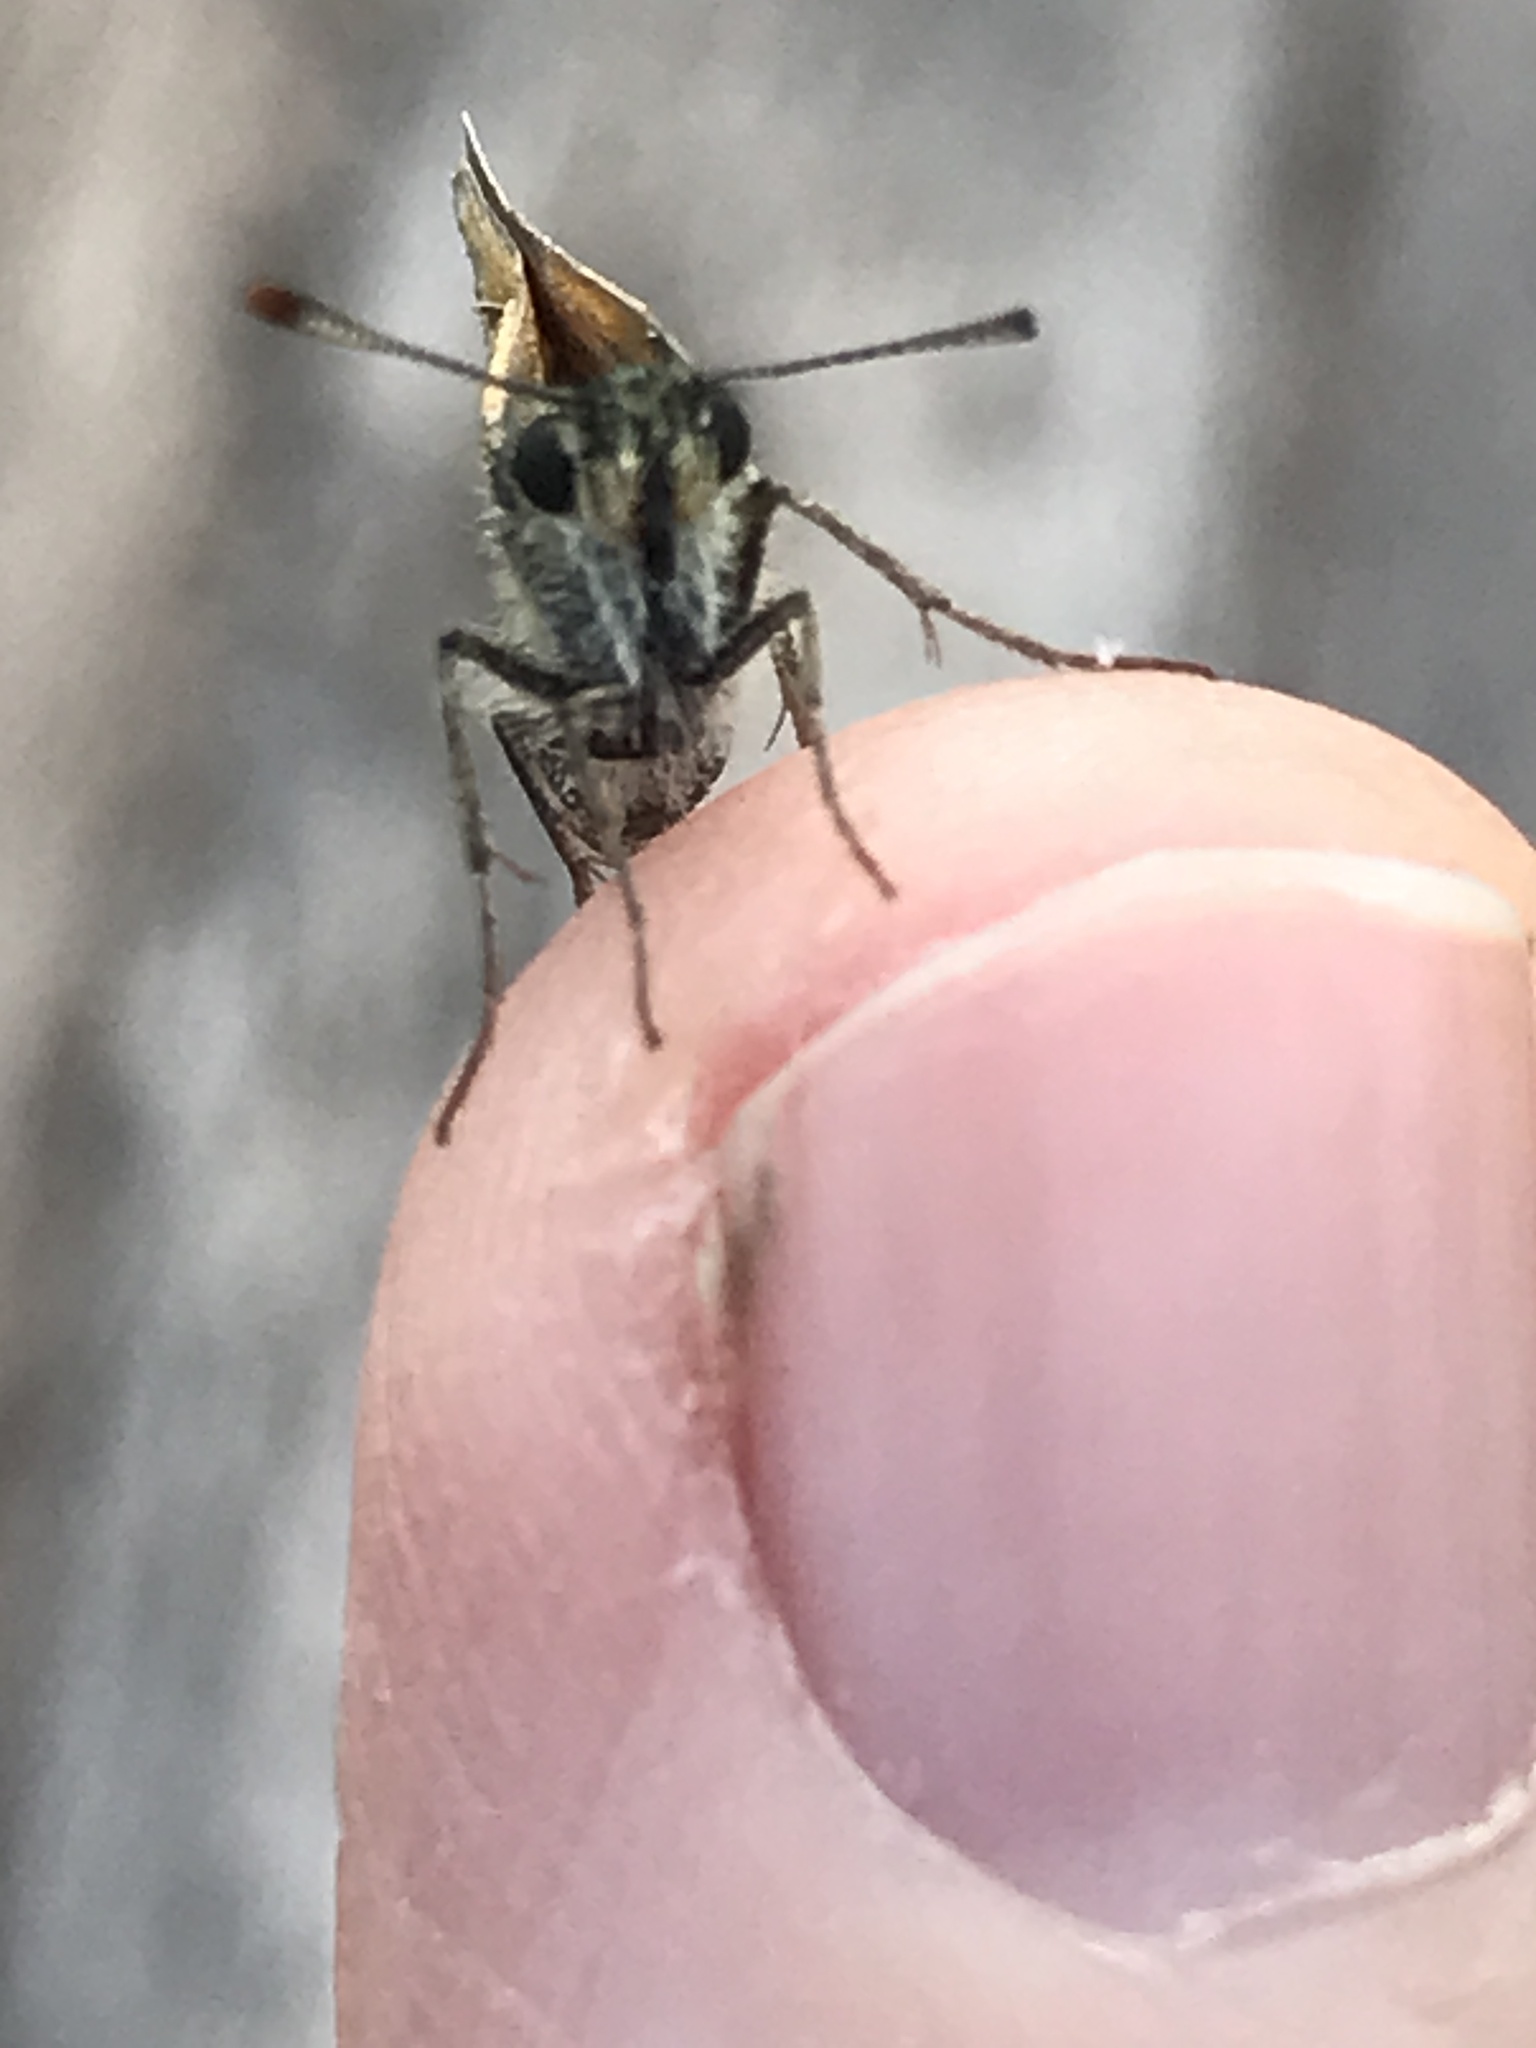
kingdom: Animalia
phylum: Arthropoda
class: Insecta
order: Lepidoptera
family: Hesperiidae
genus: Thymelicus
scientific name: Thymelicus lineola
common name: Essex skipper
